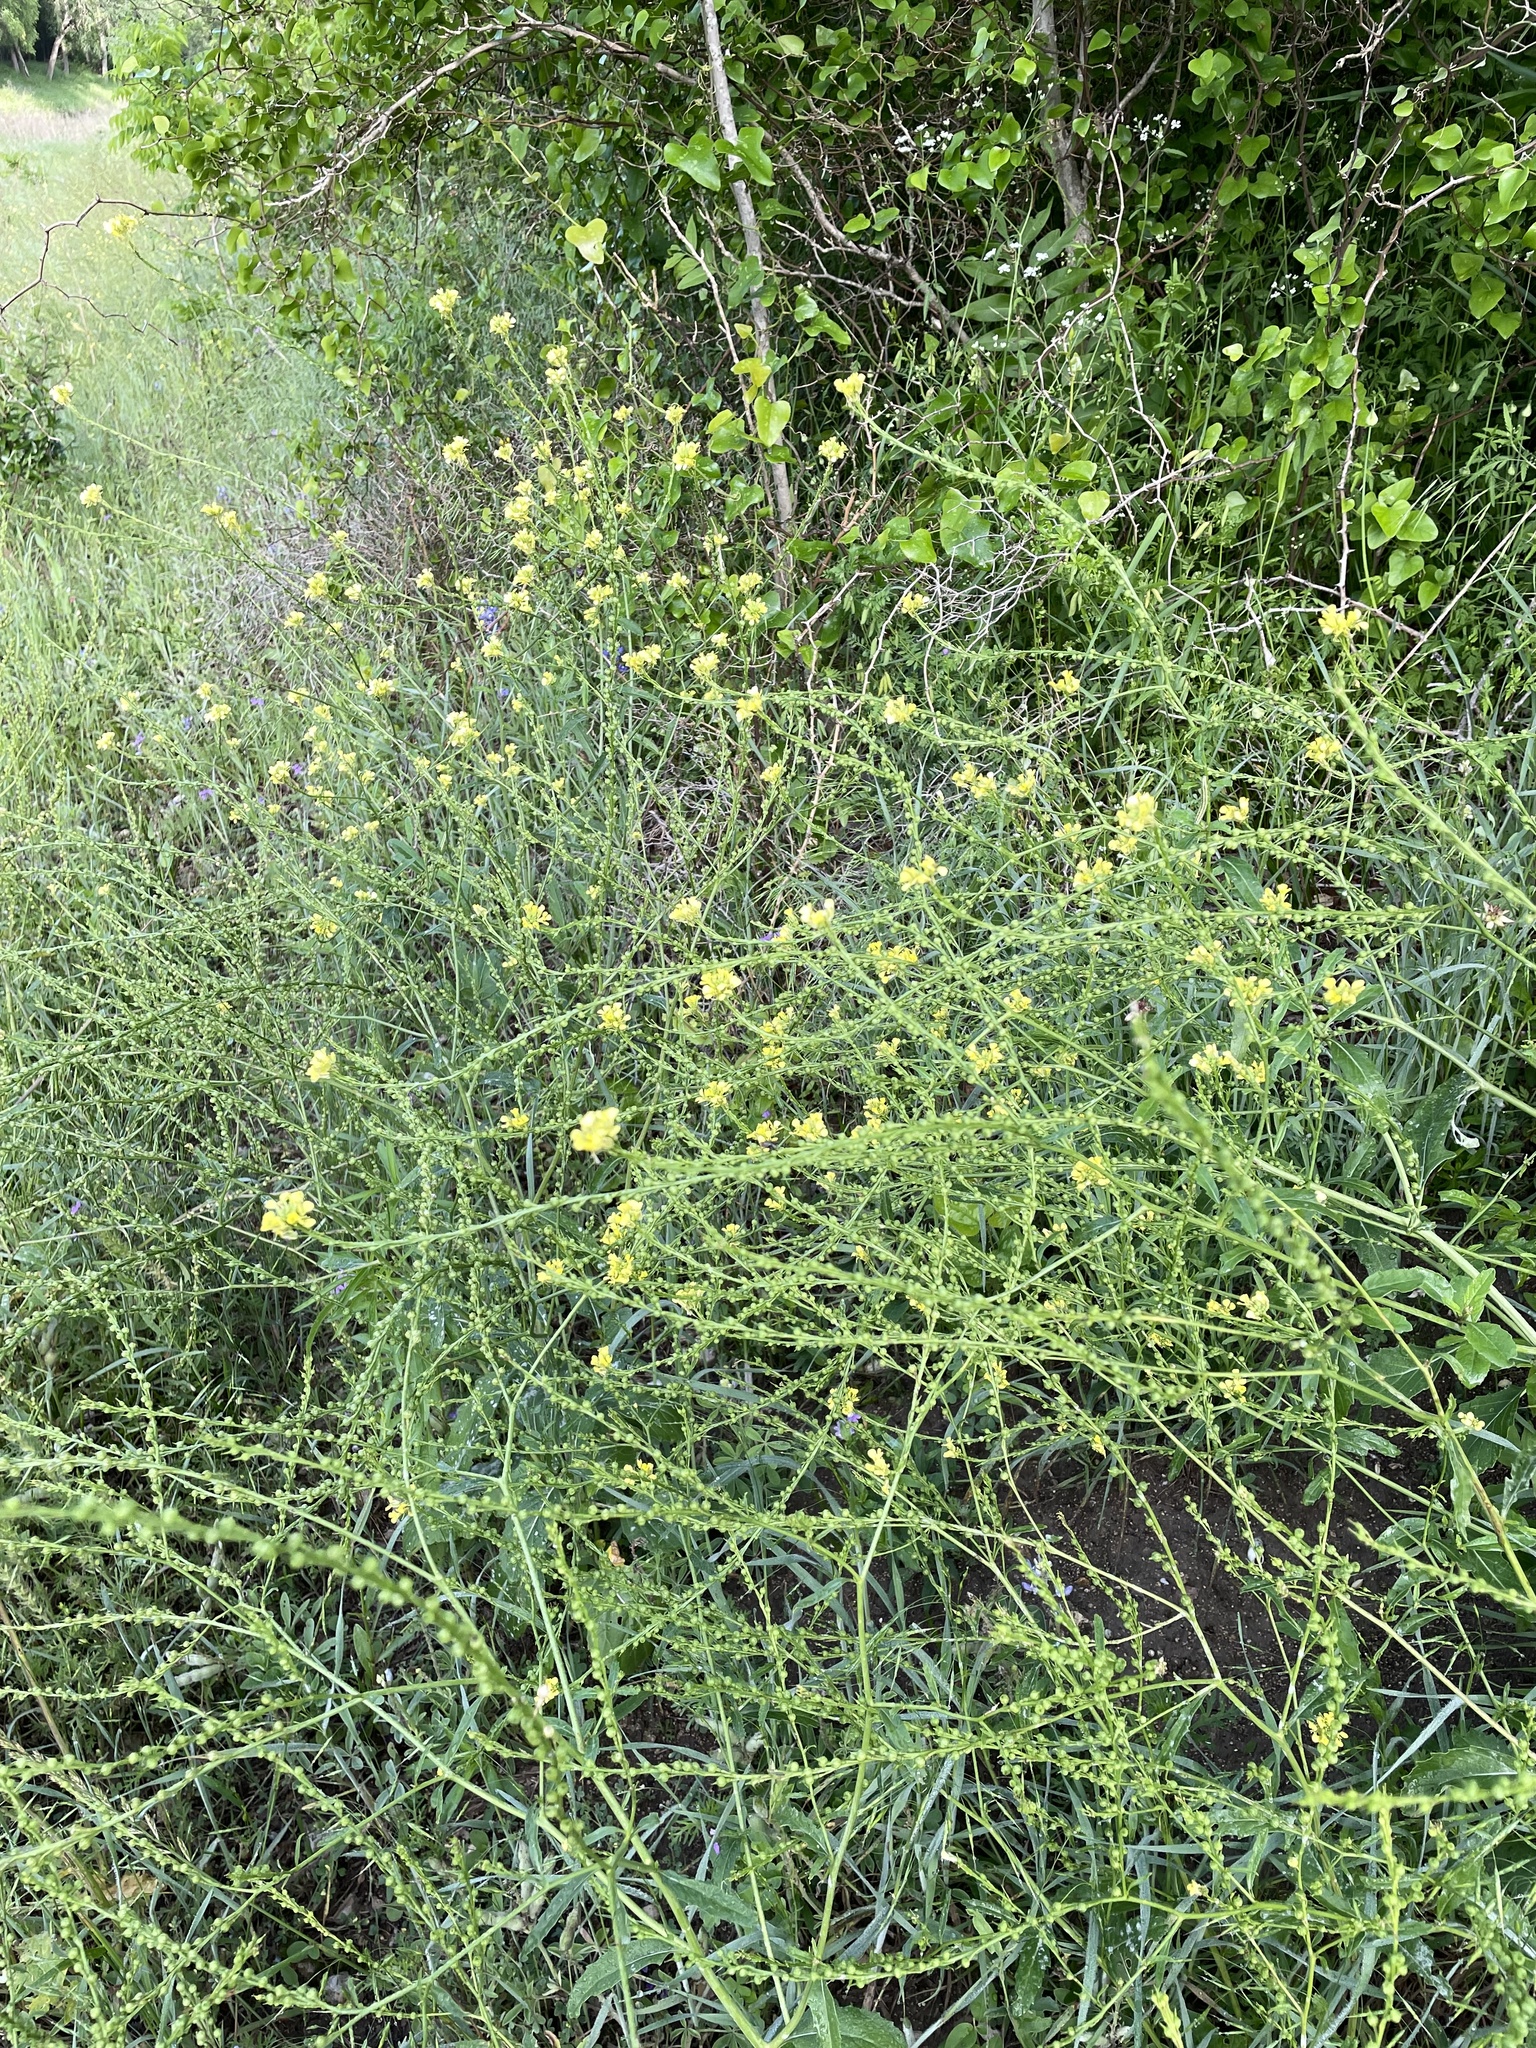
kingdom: Plantae
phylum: Tracheophyta
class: Magnoliopsida
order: Brassicales
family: Brassicaceae
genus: Rapistrum
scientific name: Rapistrum rugosum
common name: Annual bastardcabbage
